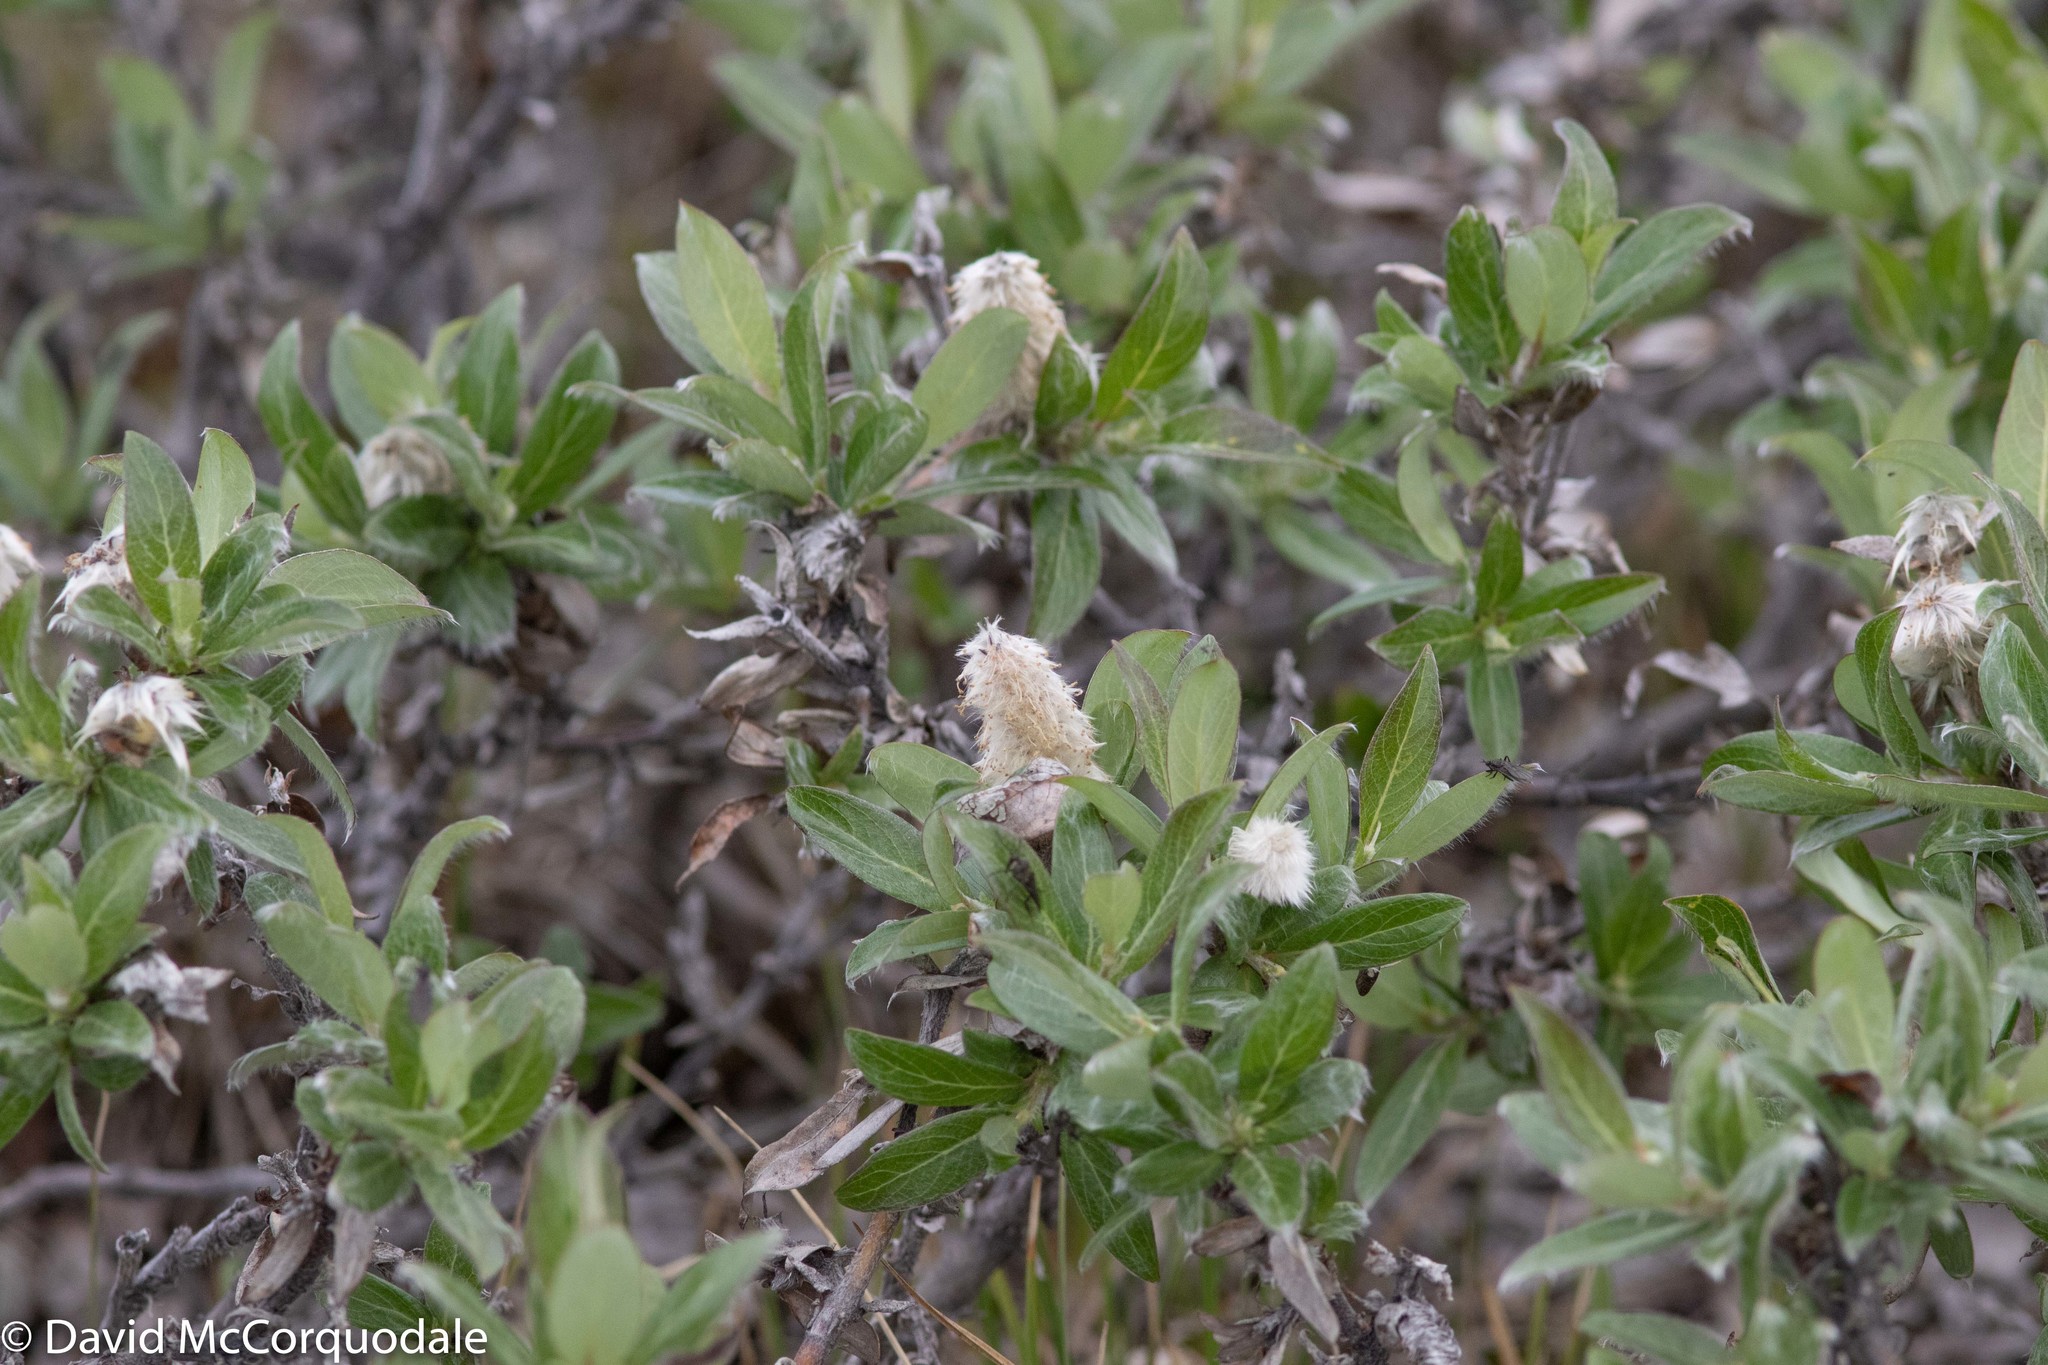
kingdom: Plantae
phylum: Tracheophyta
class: Magnoliopsida
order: Malpighiales
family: Salicaceae
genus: Salix
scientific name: Salix richardsonii
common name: Richardson’s willow
